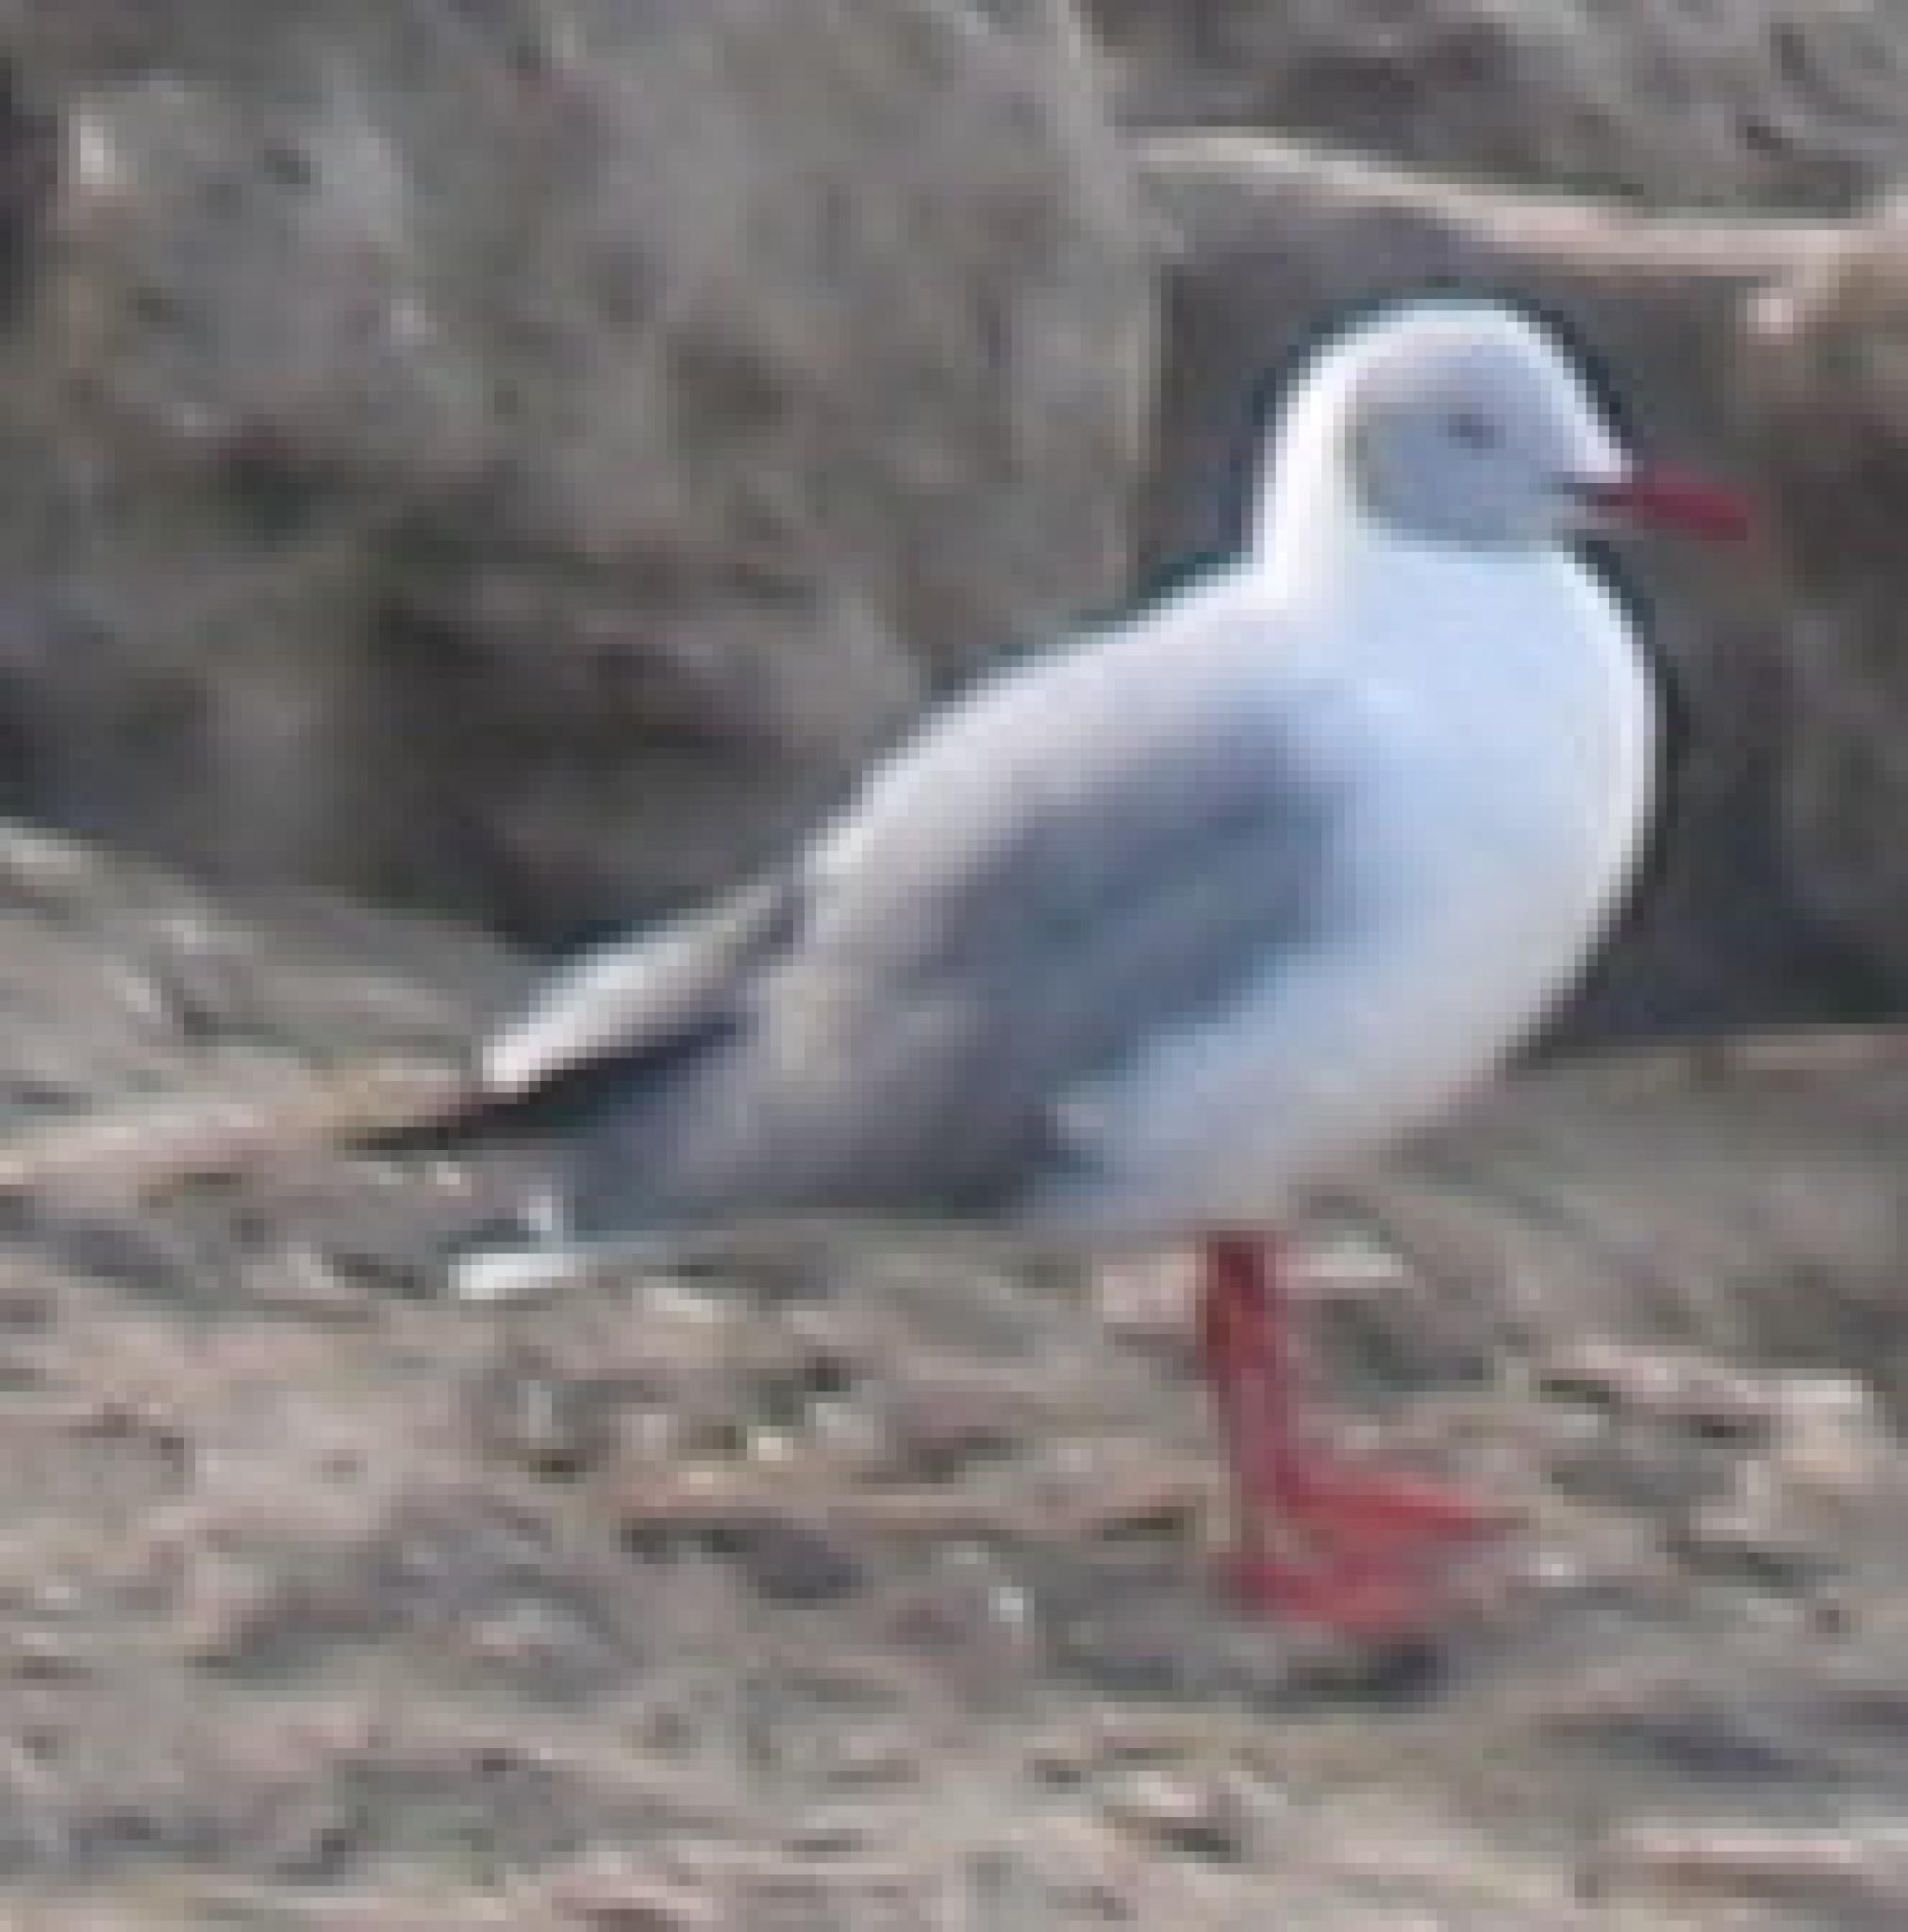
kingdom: Animalia
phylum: Chordata
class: Aves
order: Charadriiformes
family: Laridae
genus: Chroicocephalus
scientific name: Chroicocephalus cirrocephalus
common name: Grey-headed gull
